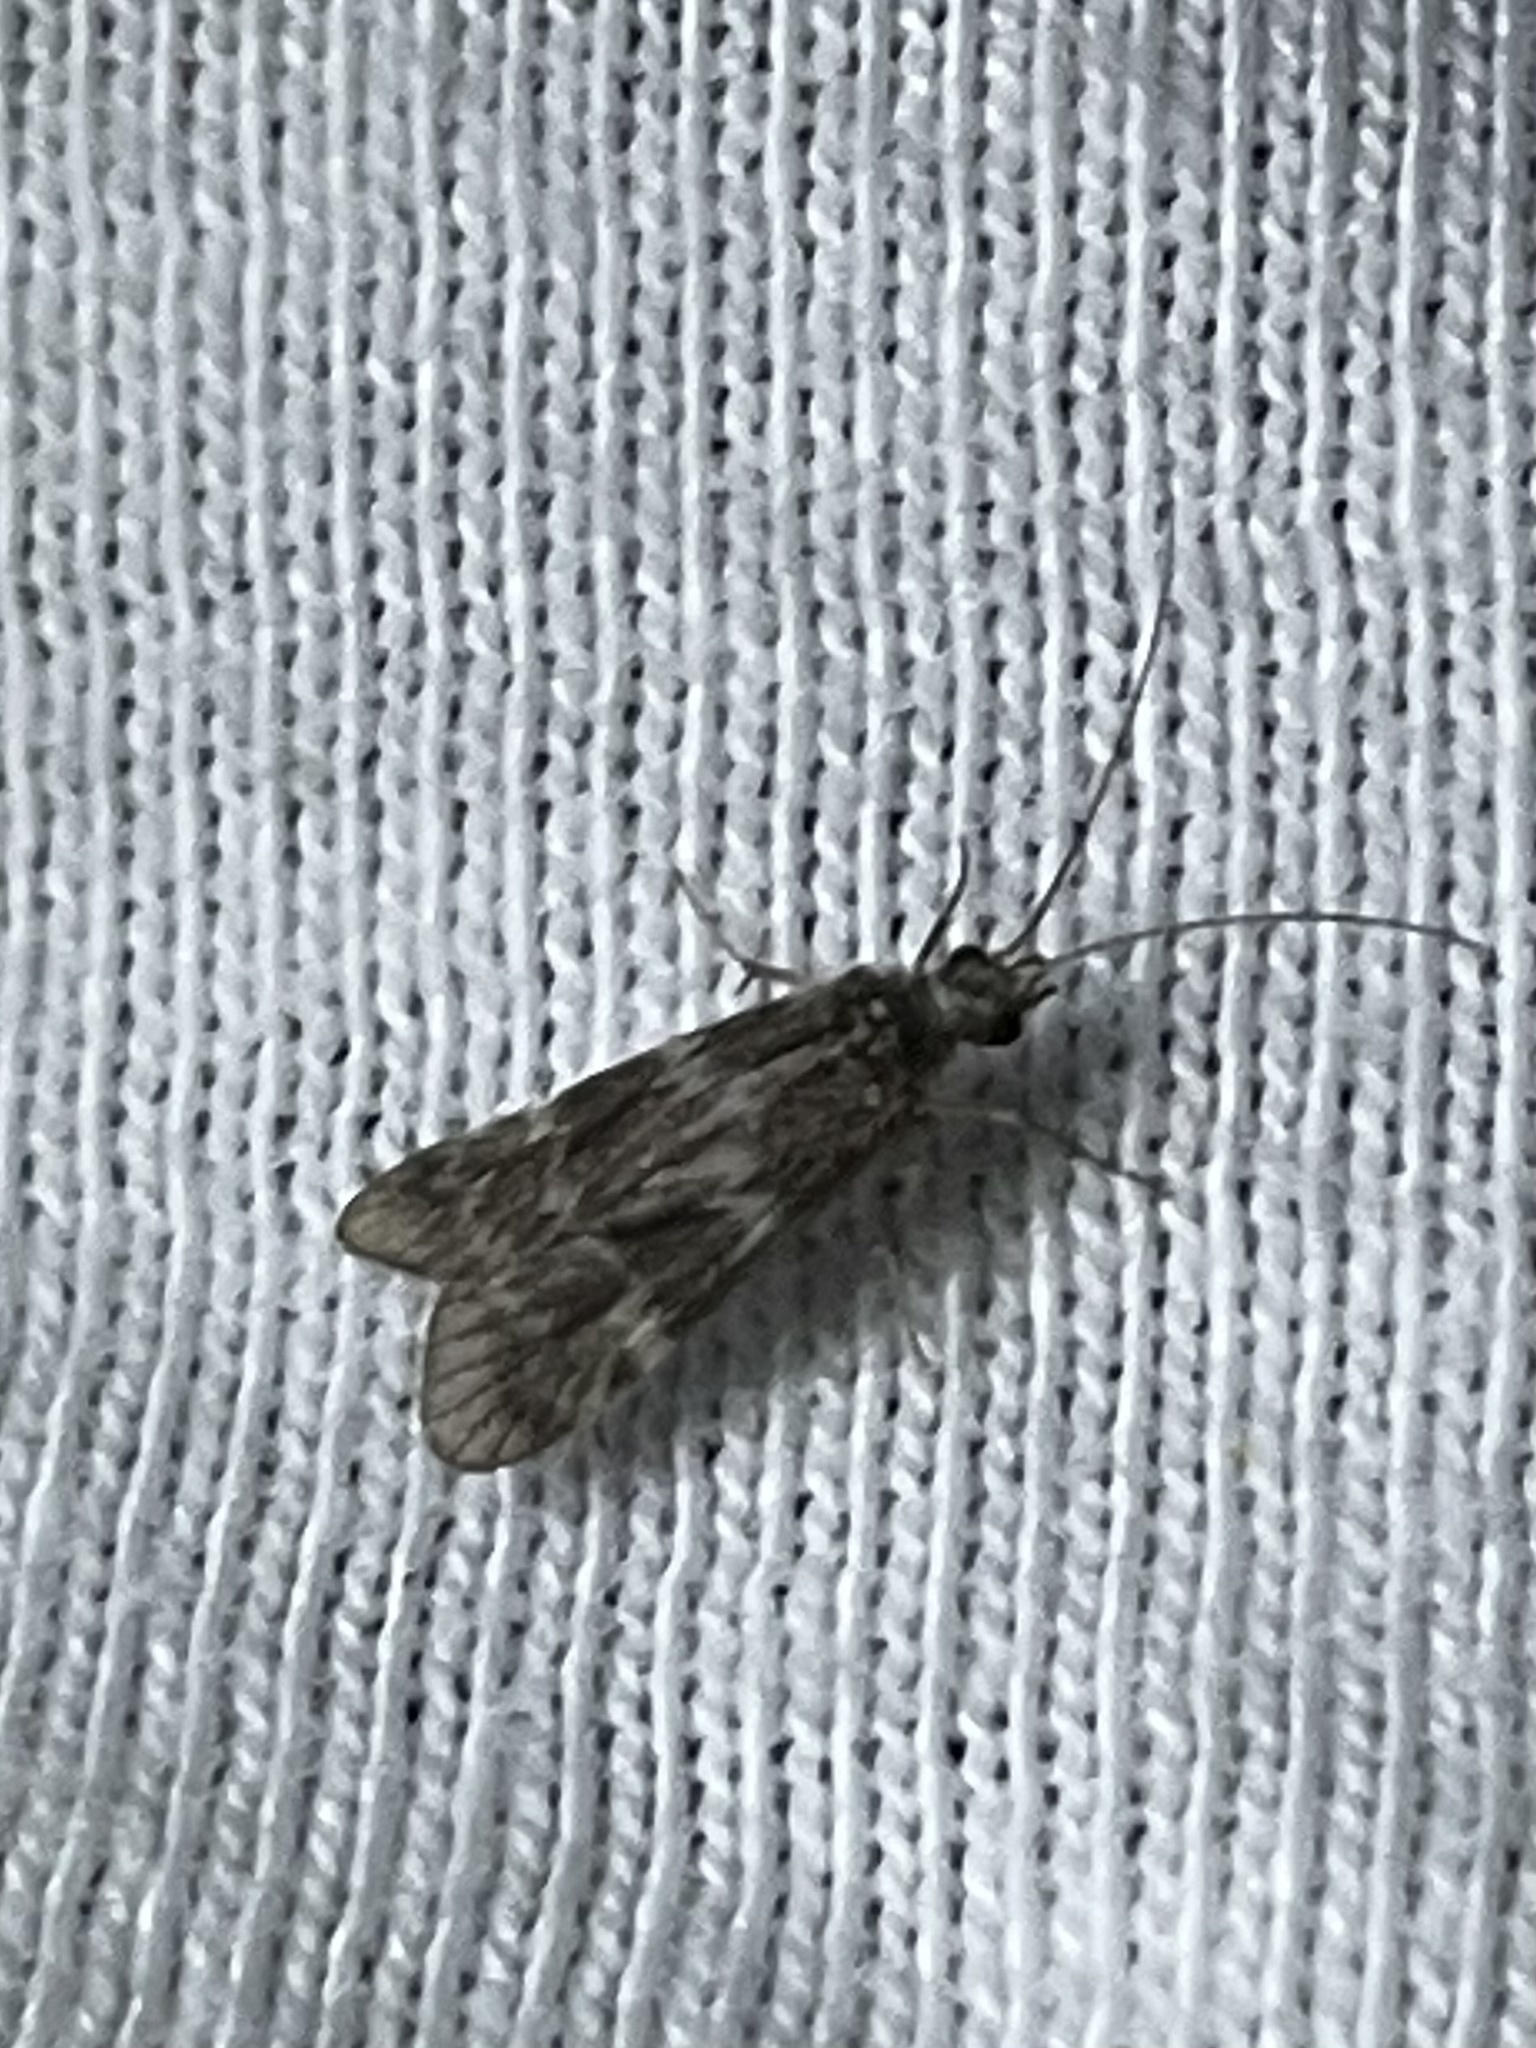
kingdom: Animalia
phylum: Arthropoda
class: Insecta
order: Trichoptera
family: Hydropsychidae
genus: Smicridea
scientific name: Smicridea fasciatella
